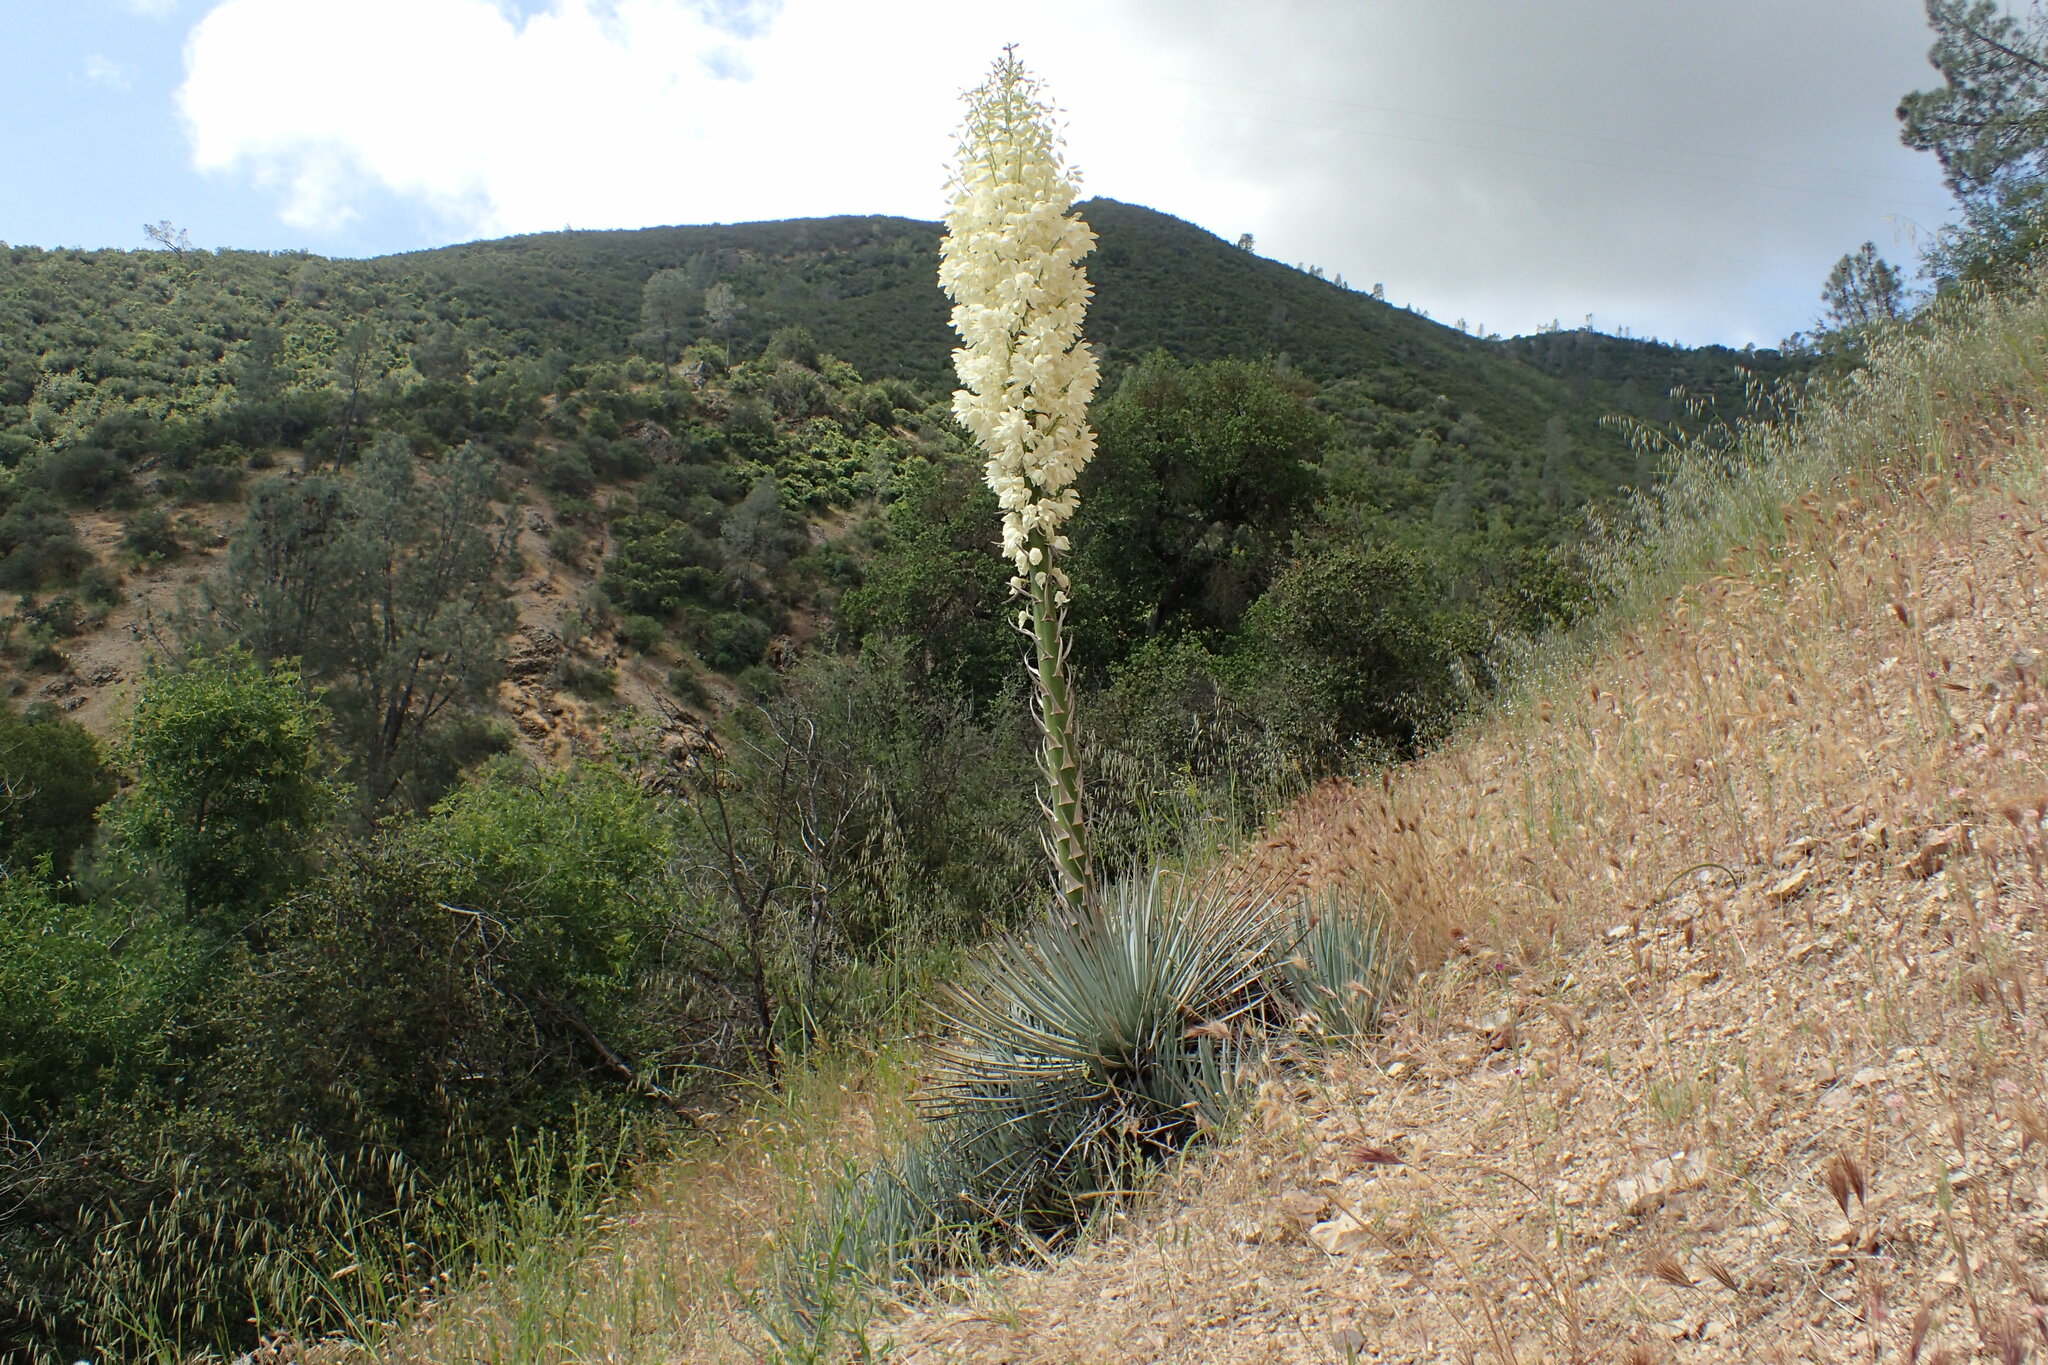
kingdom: Plantae
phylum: Tracheophyta
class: Liliopsida
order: Asparagales
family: Asparagaceae
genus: Hesperoyucca
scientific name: Hesperoyucca whipplei
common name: Our lord's-candle
